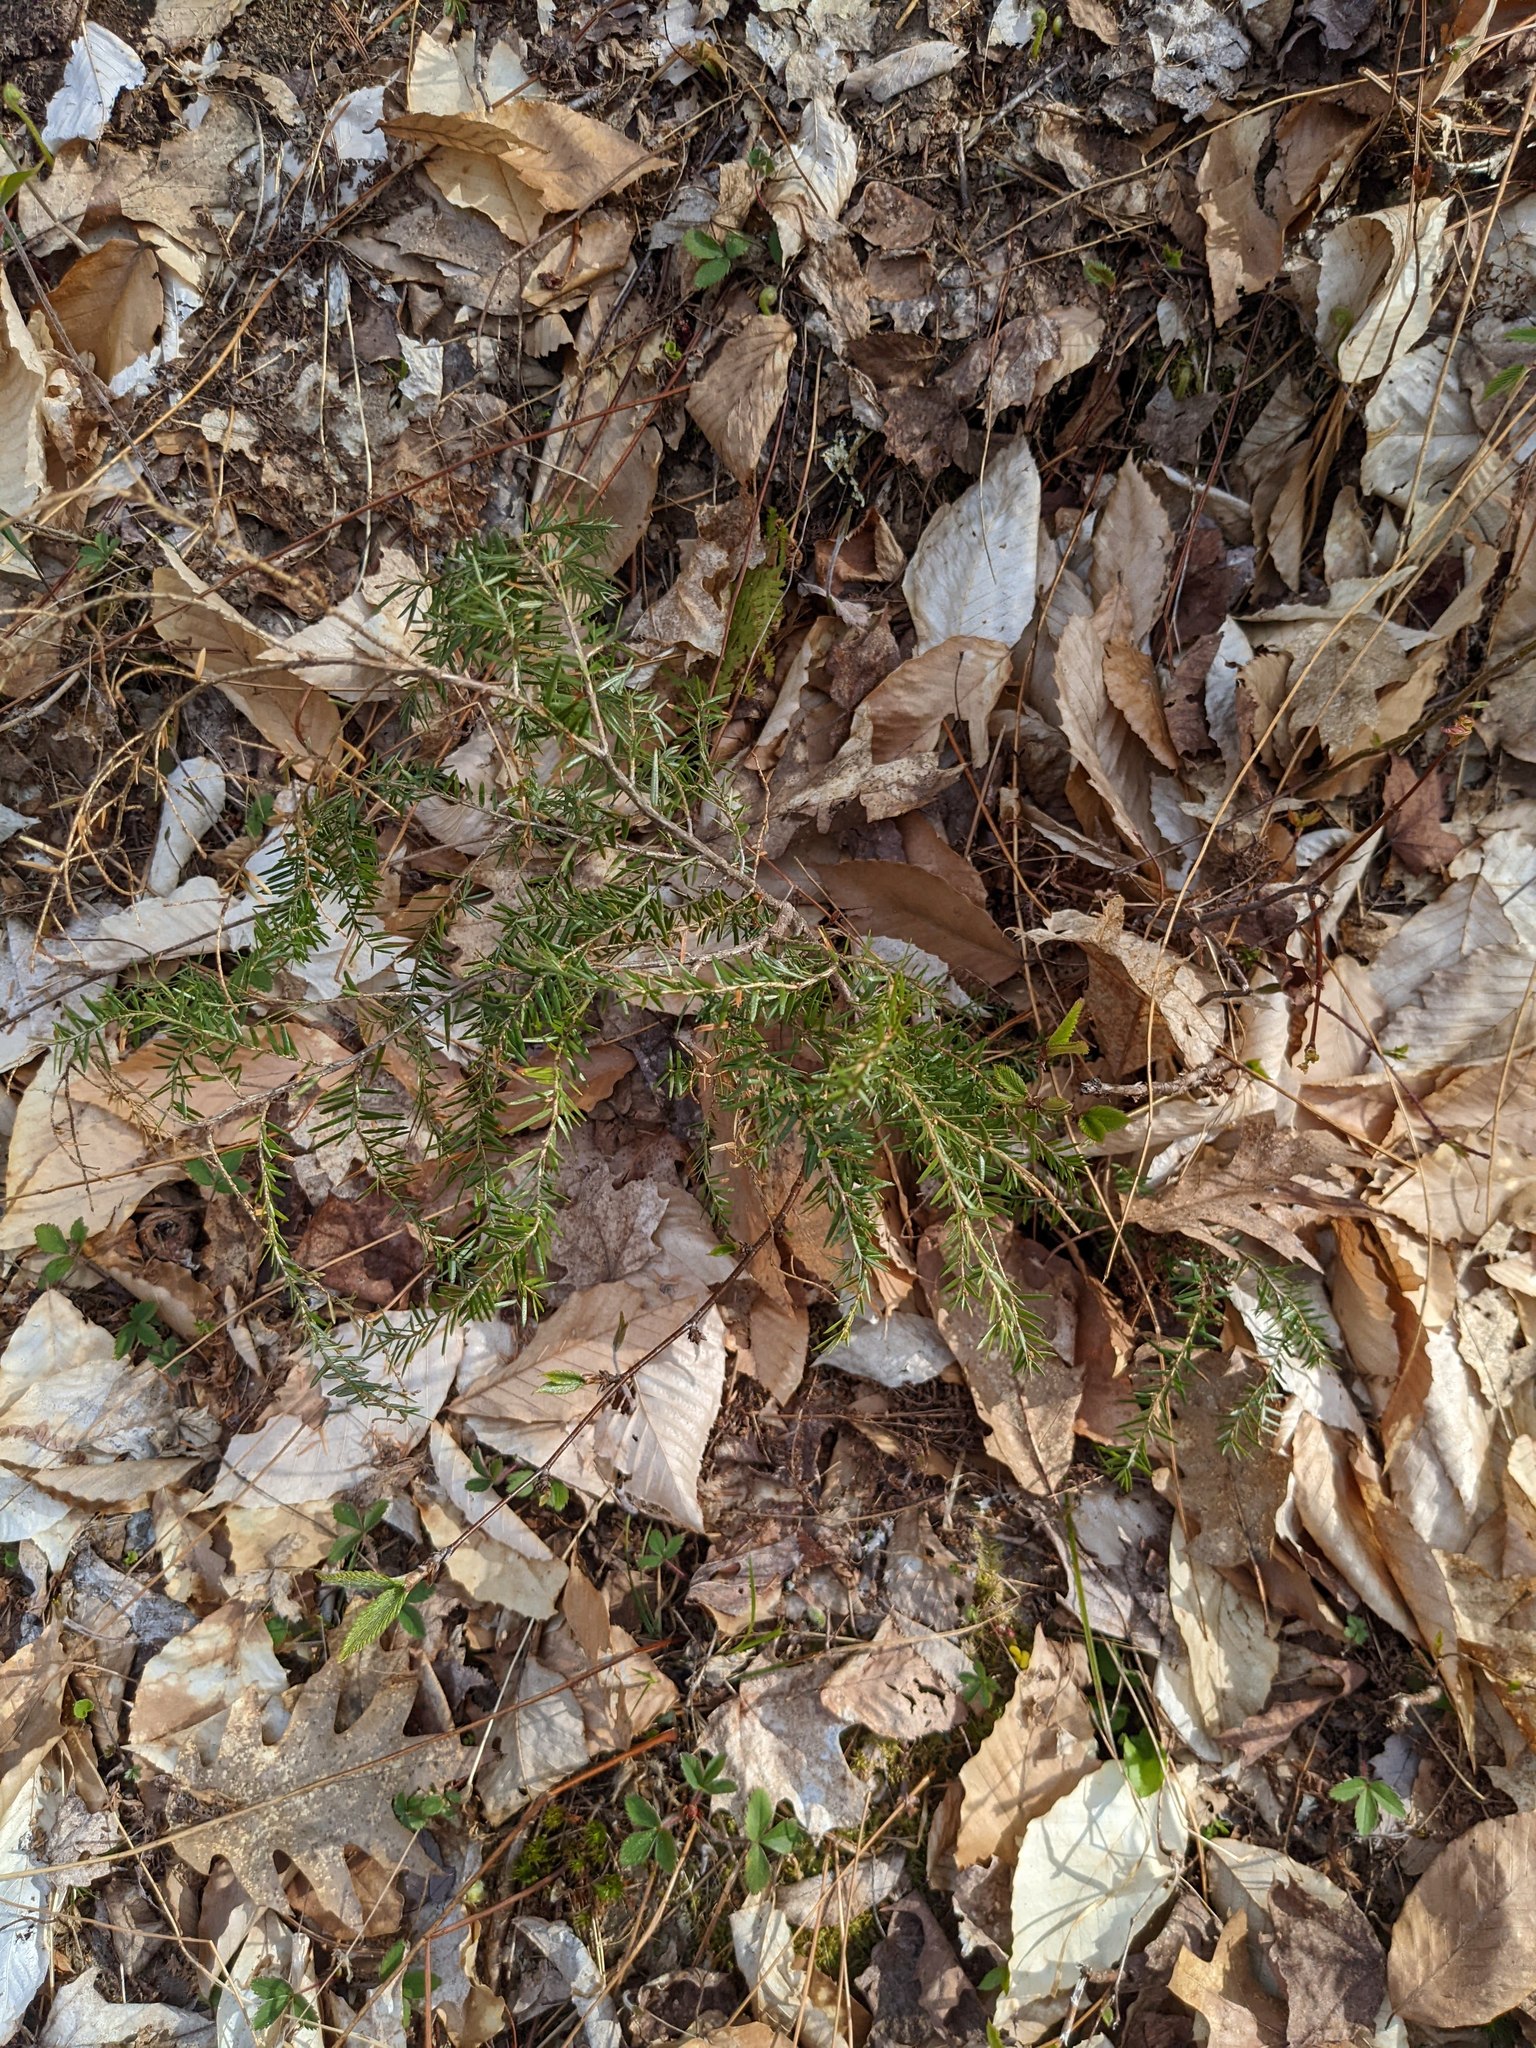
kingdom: Plantae
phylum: Tracheophyta
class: Pinopsida
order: Pinales
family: Pinaceae
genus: Tsuga
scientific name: Tsuga canadensis
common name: Eastern hemlock
